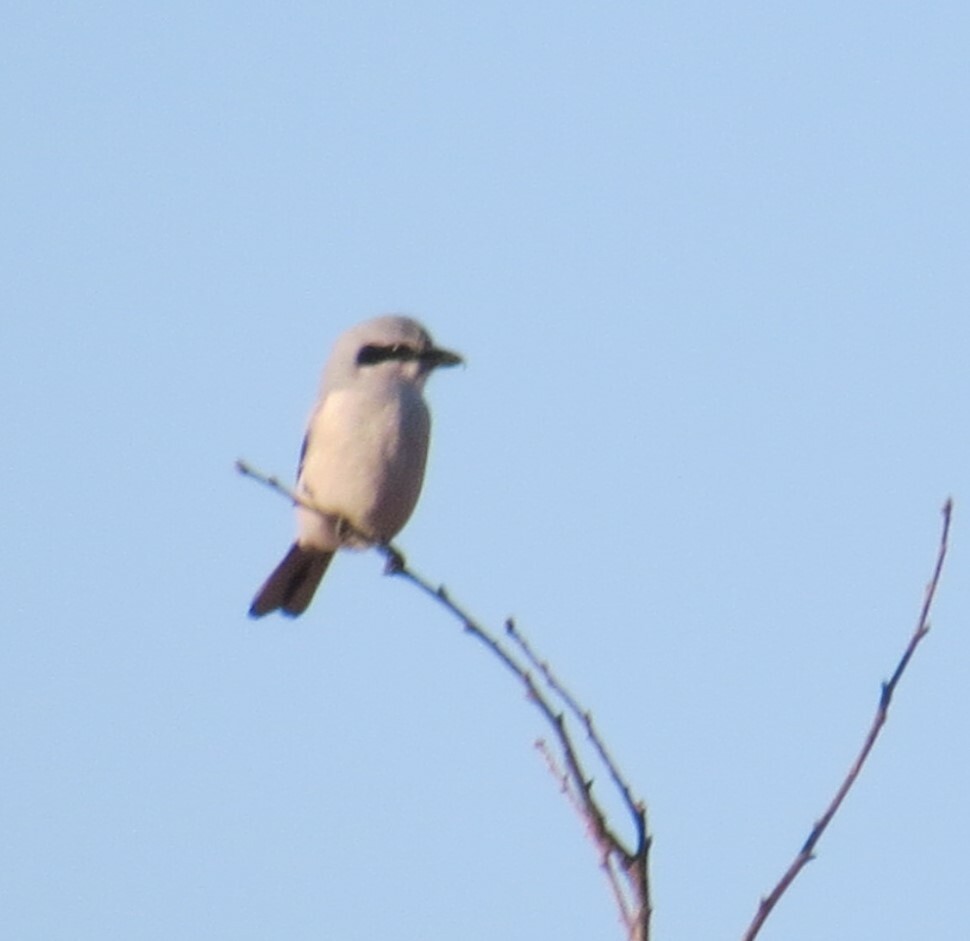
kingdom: Animalia
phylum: Chordata
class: Aves
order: Passeriformes
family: Laniidae
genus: Lanius
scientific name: Lanius borealis
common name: Northern shrike
